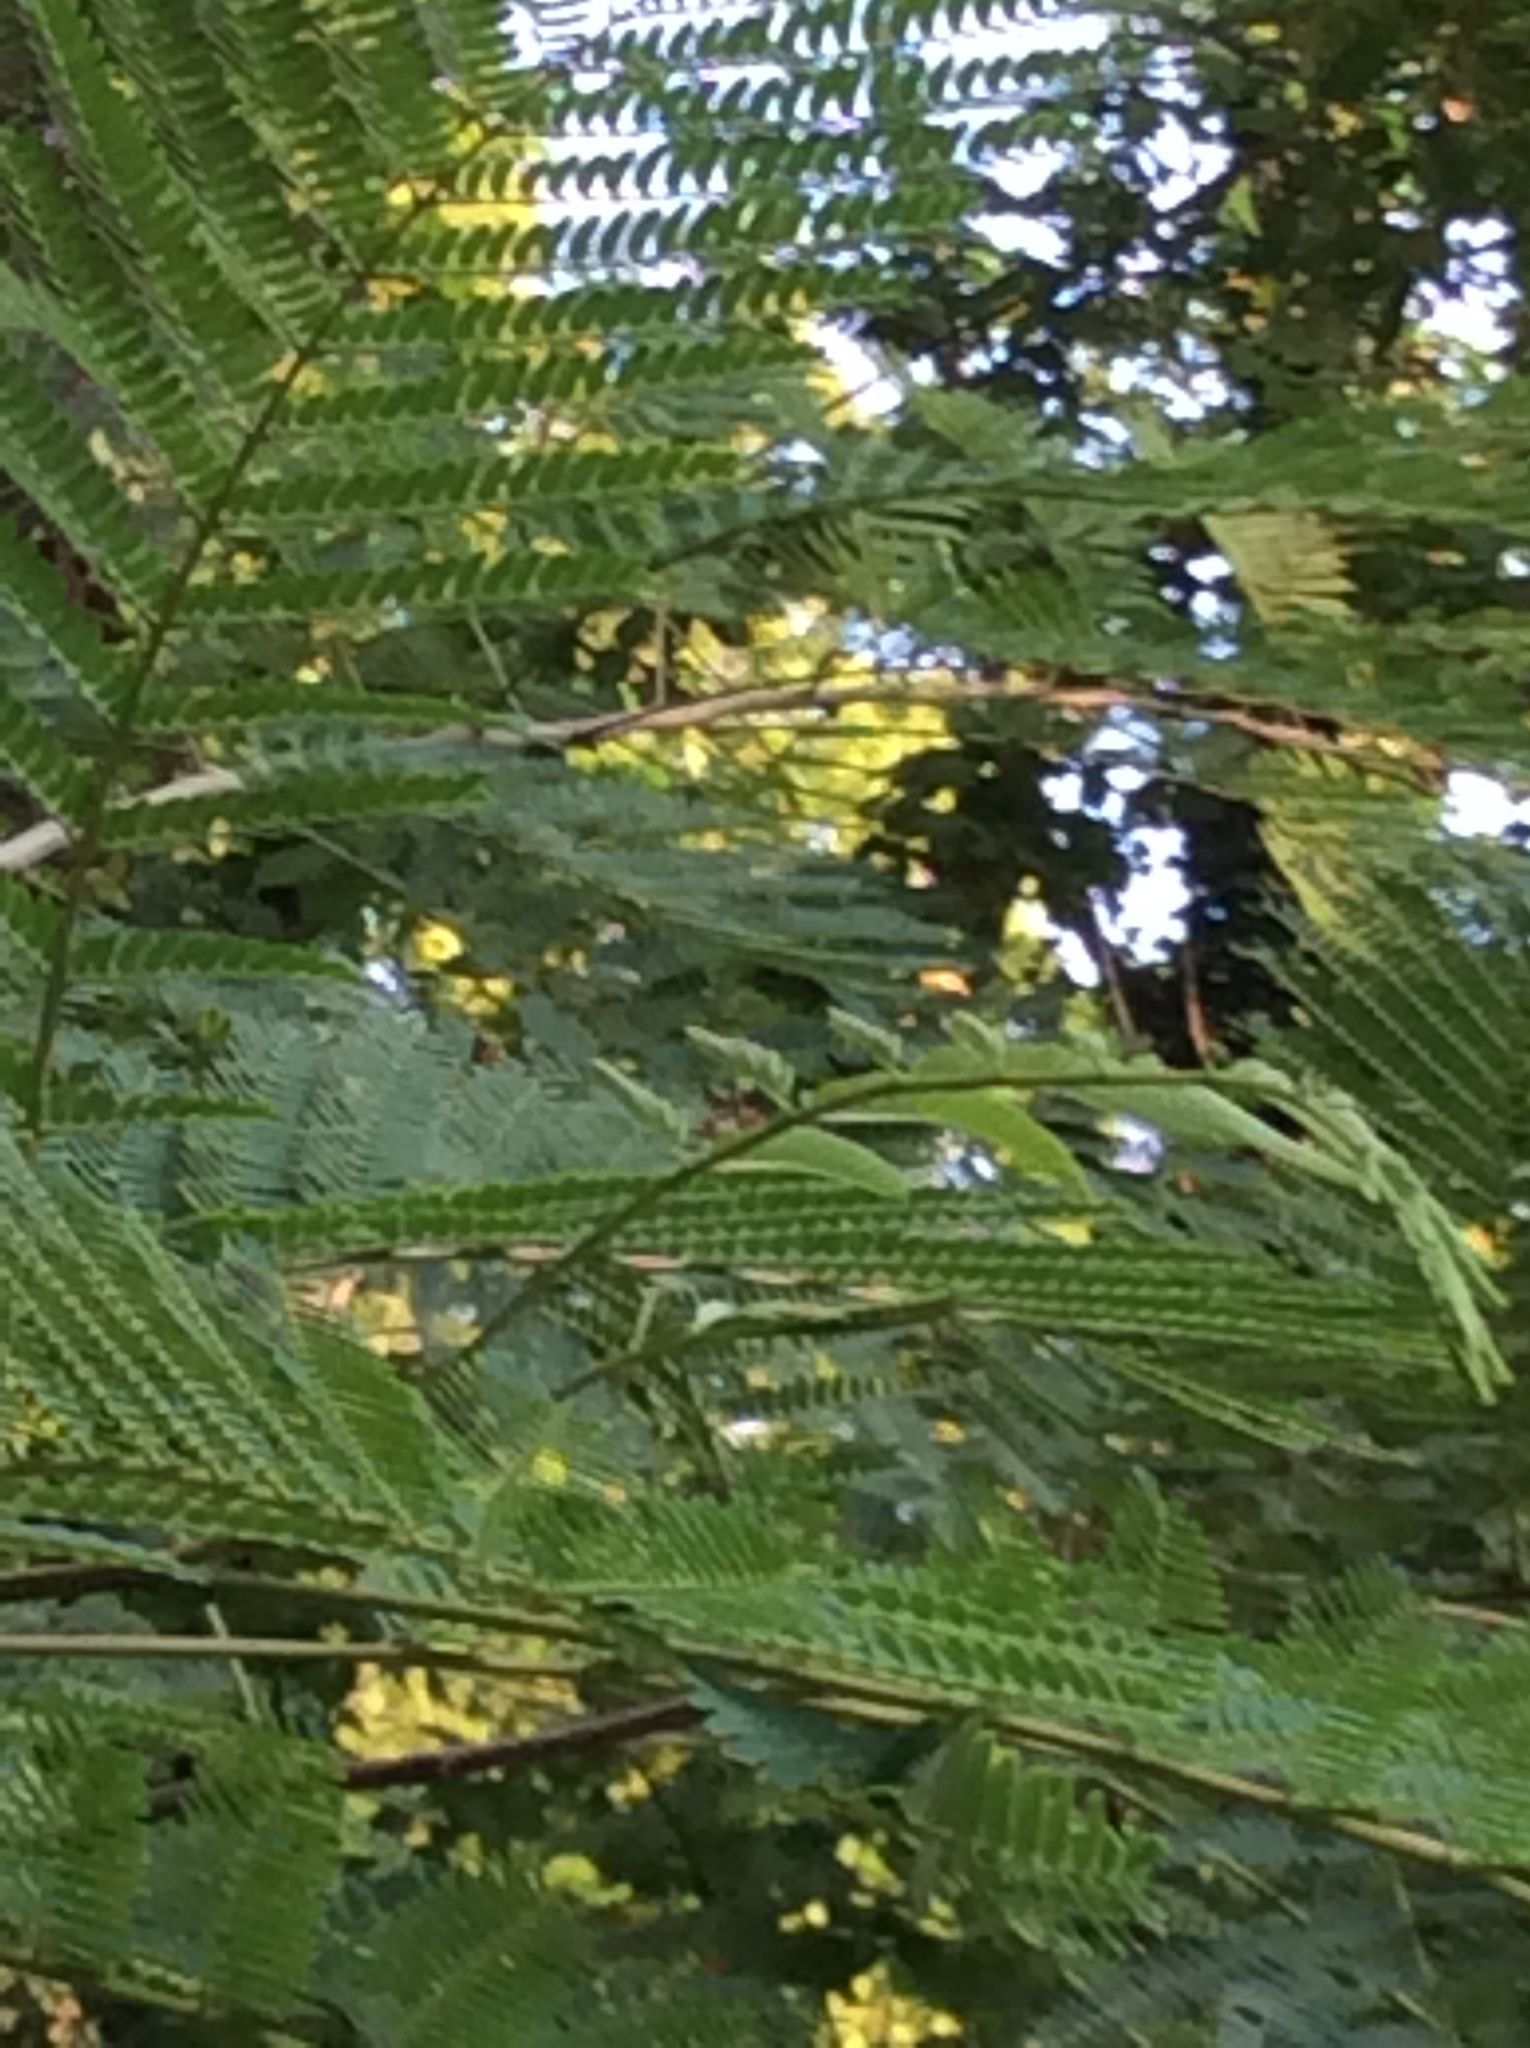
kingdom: Plantae
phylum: Tracheophyta
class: Magnoliopsida
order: Fabales
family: Fabaceae
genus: Albizia
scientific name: Albizia julibrissin
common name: Silktree
